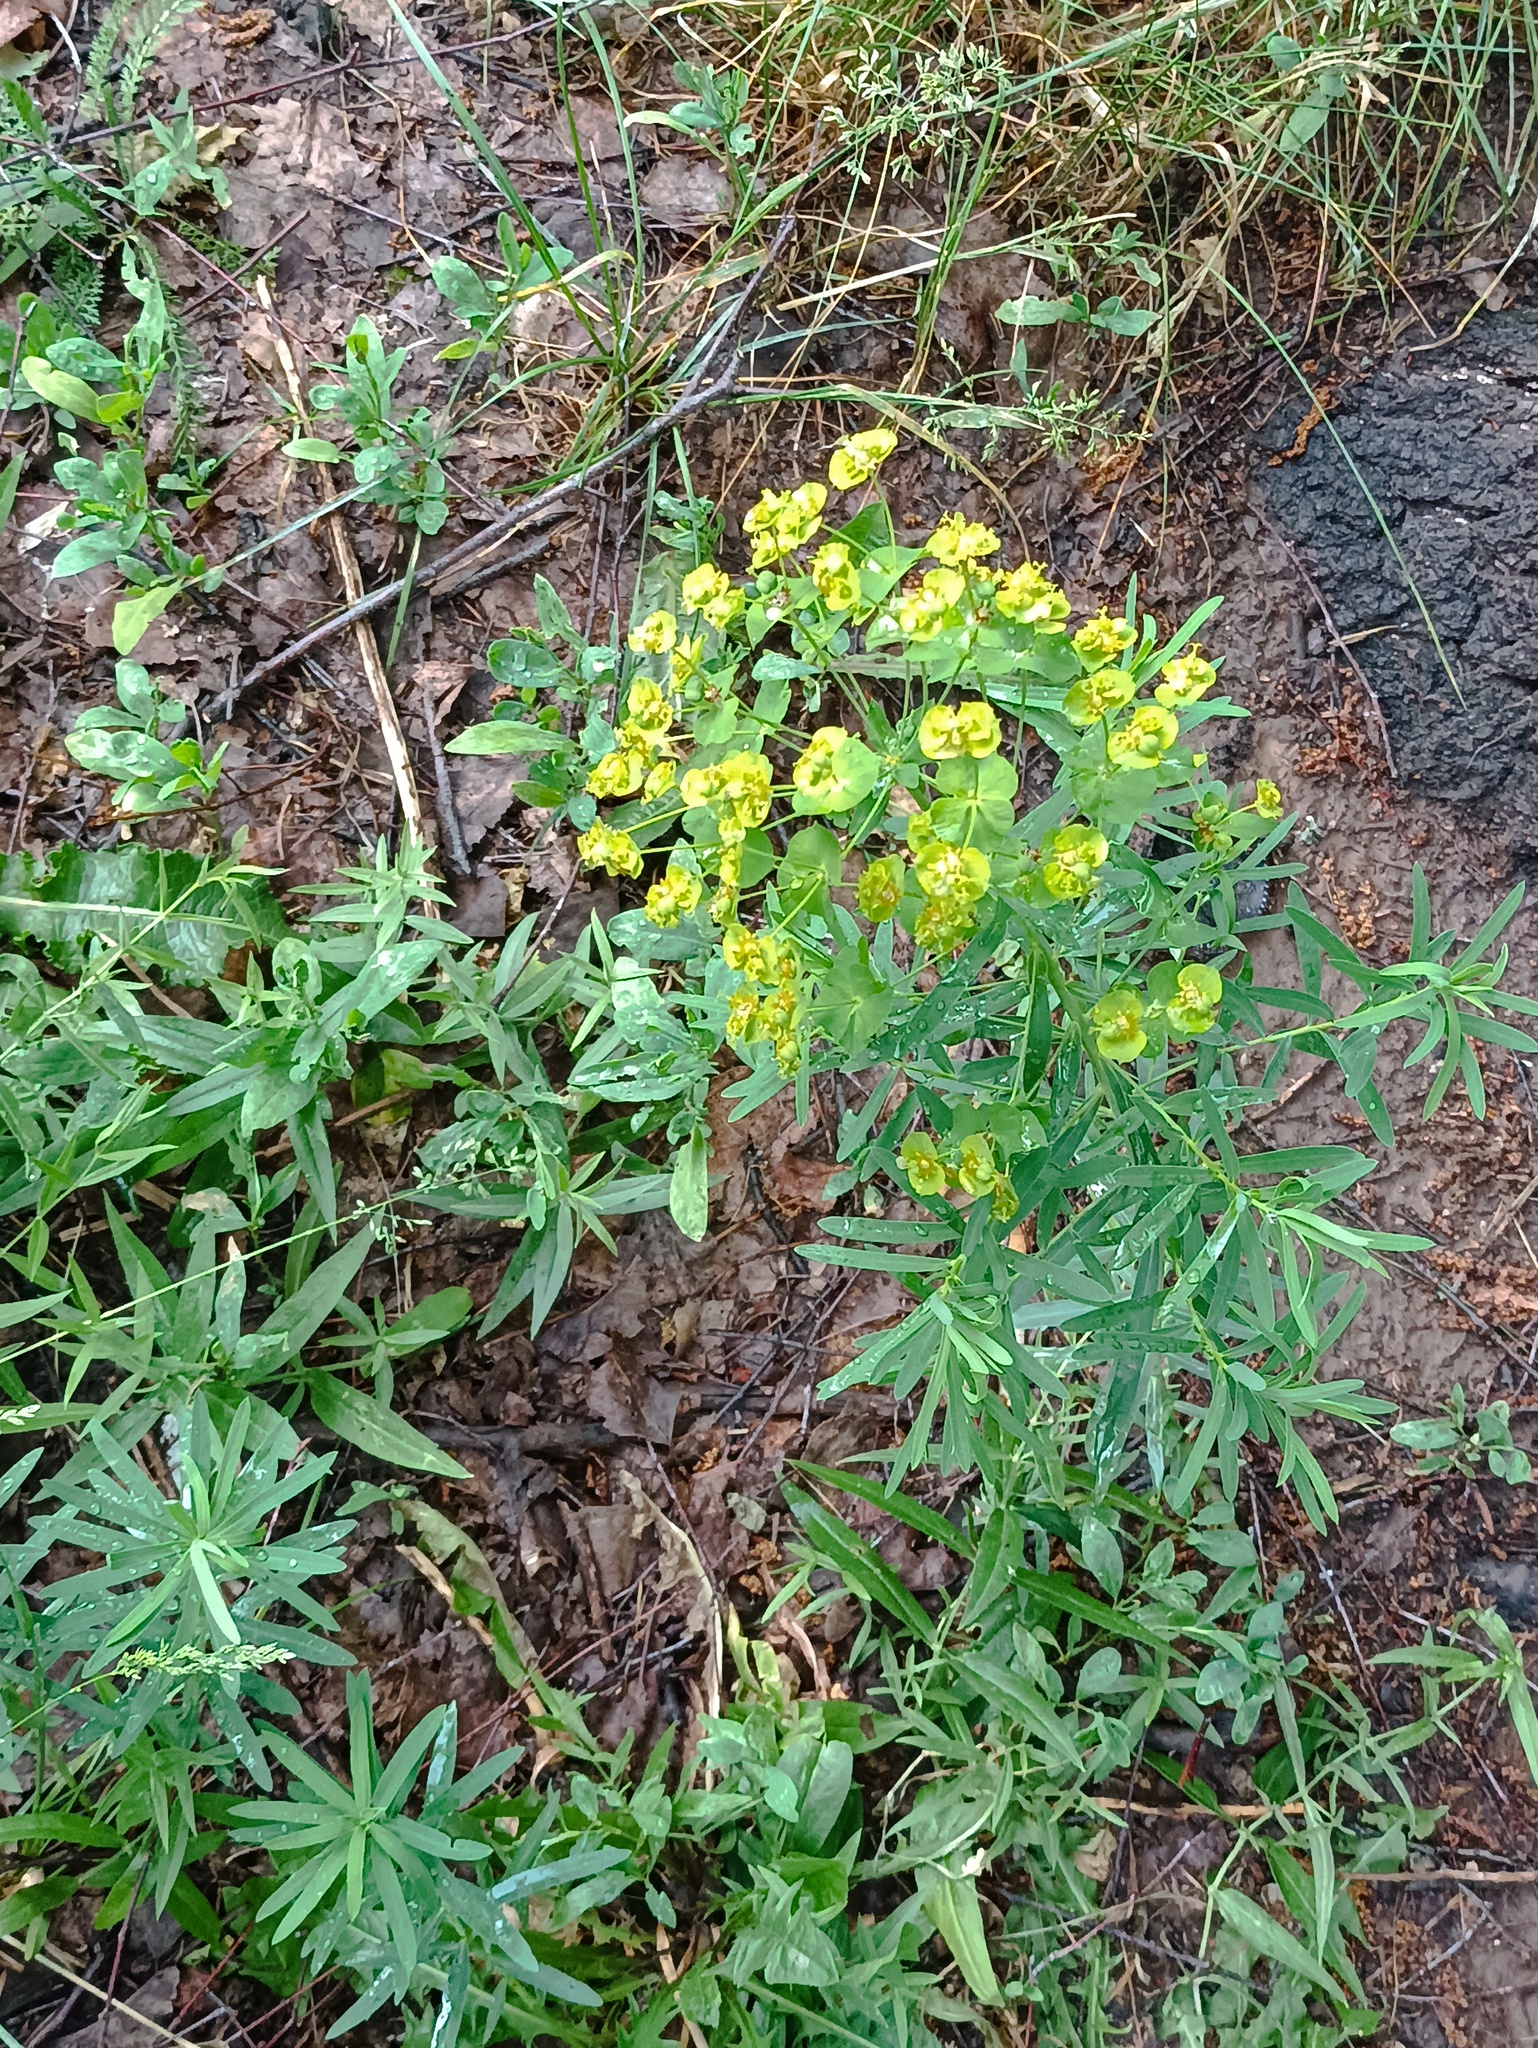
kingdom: Plantae
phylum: Tracheophyta
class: Magnoliopsida
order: Malpighiales
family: Euphorbiaceae
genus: Euphorbia
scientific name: Euphorbia virgata
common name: Leafy spurge
